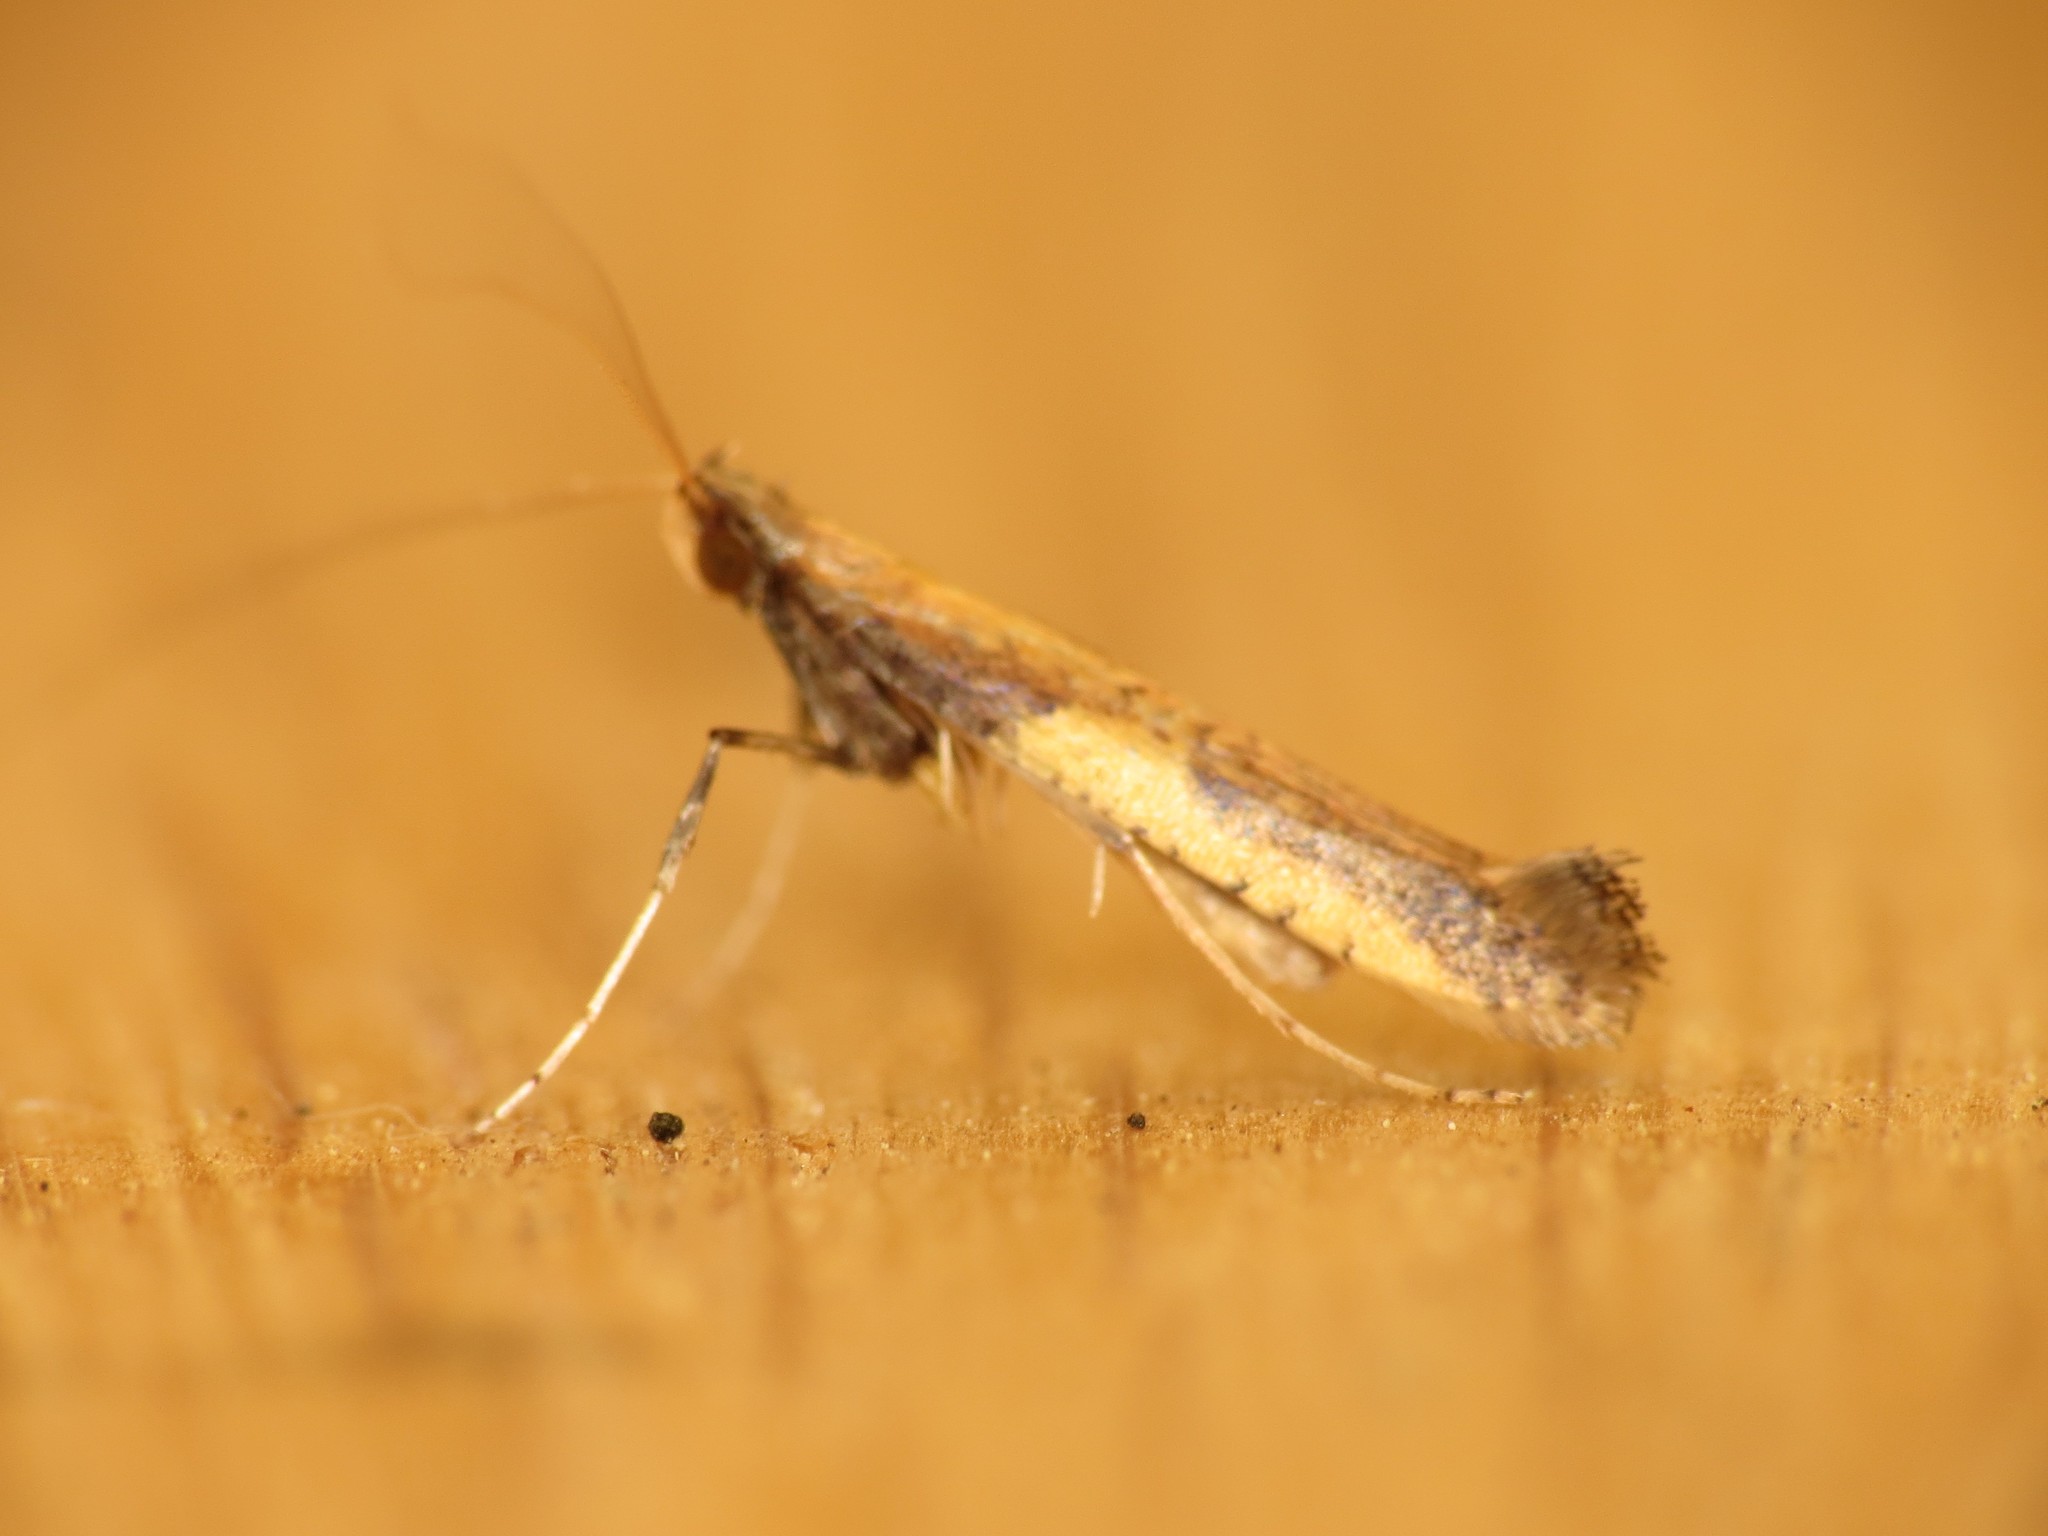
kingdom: Animalia
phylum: Arthropoda
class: Insecta
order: Lepidoptera
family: Gracillariidae
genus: Caloptilia
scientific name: Caloptilia azaleella
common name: Azalea leafminer
